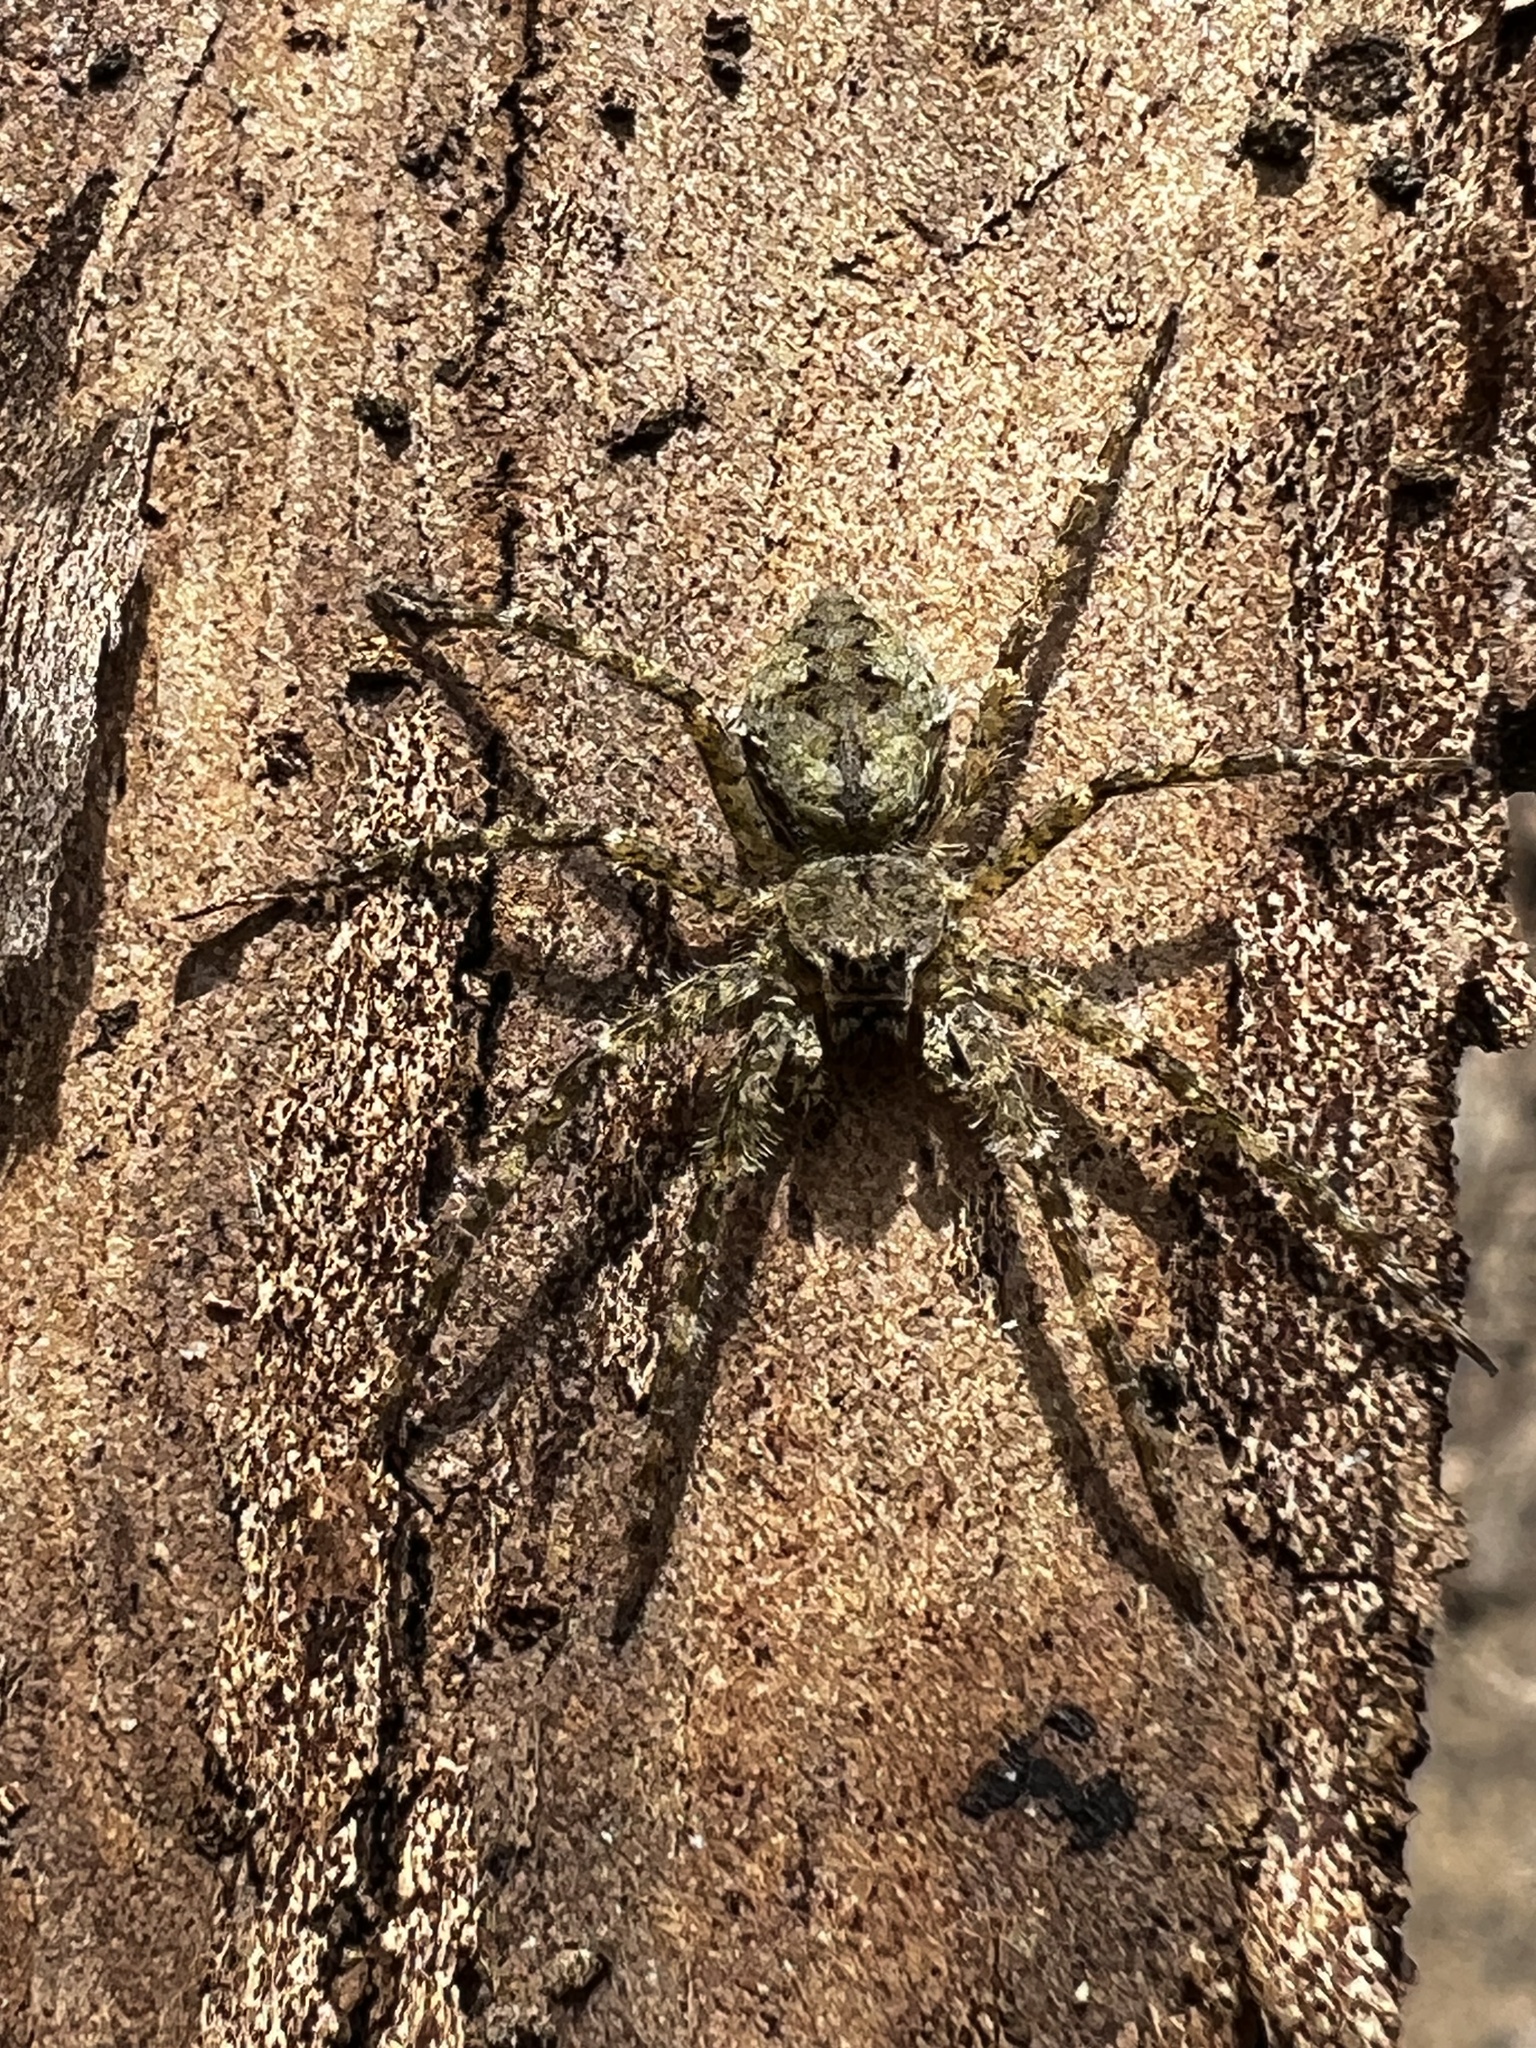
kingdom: Animalia
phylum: Arthropoda
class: Arachnida
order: Araneae
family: Pisauridae
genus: Dolomedes
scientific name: Dolomedes albineus
